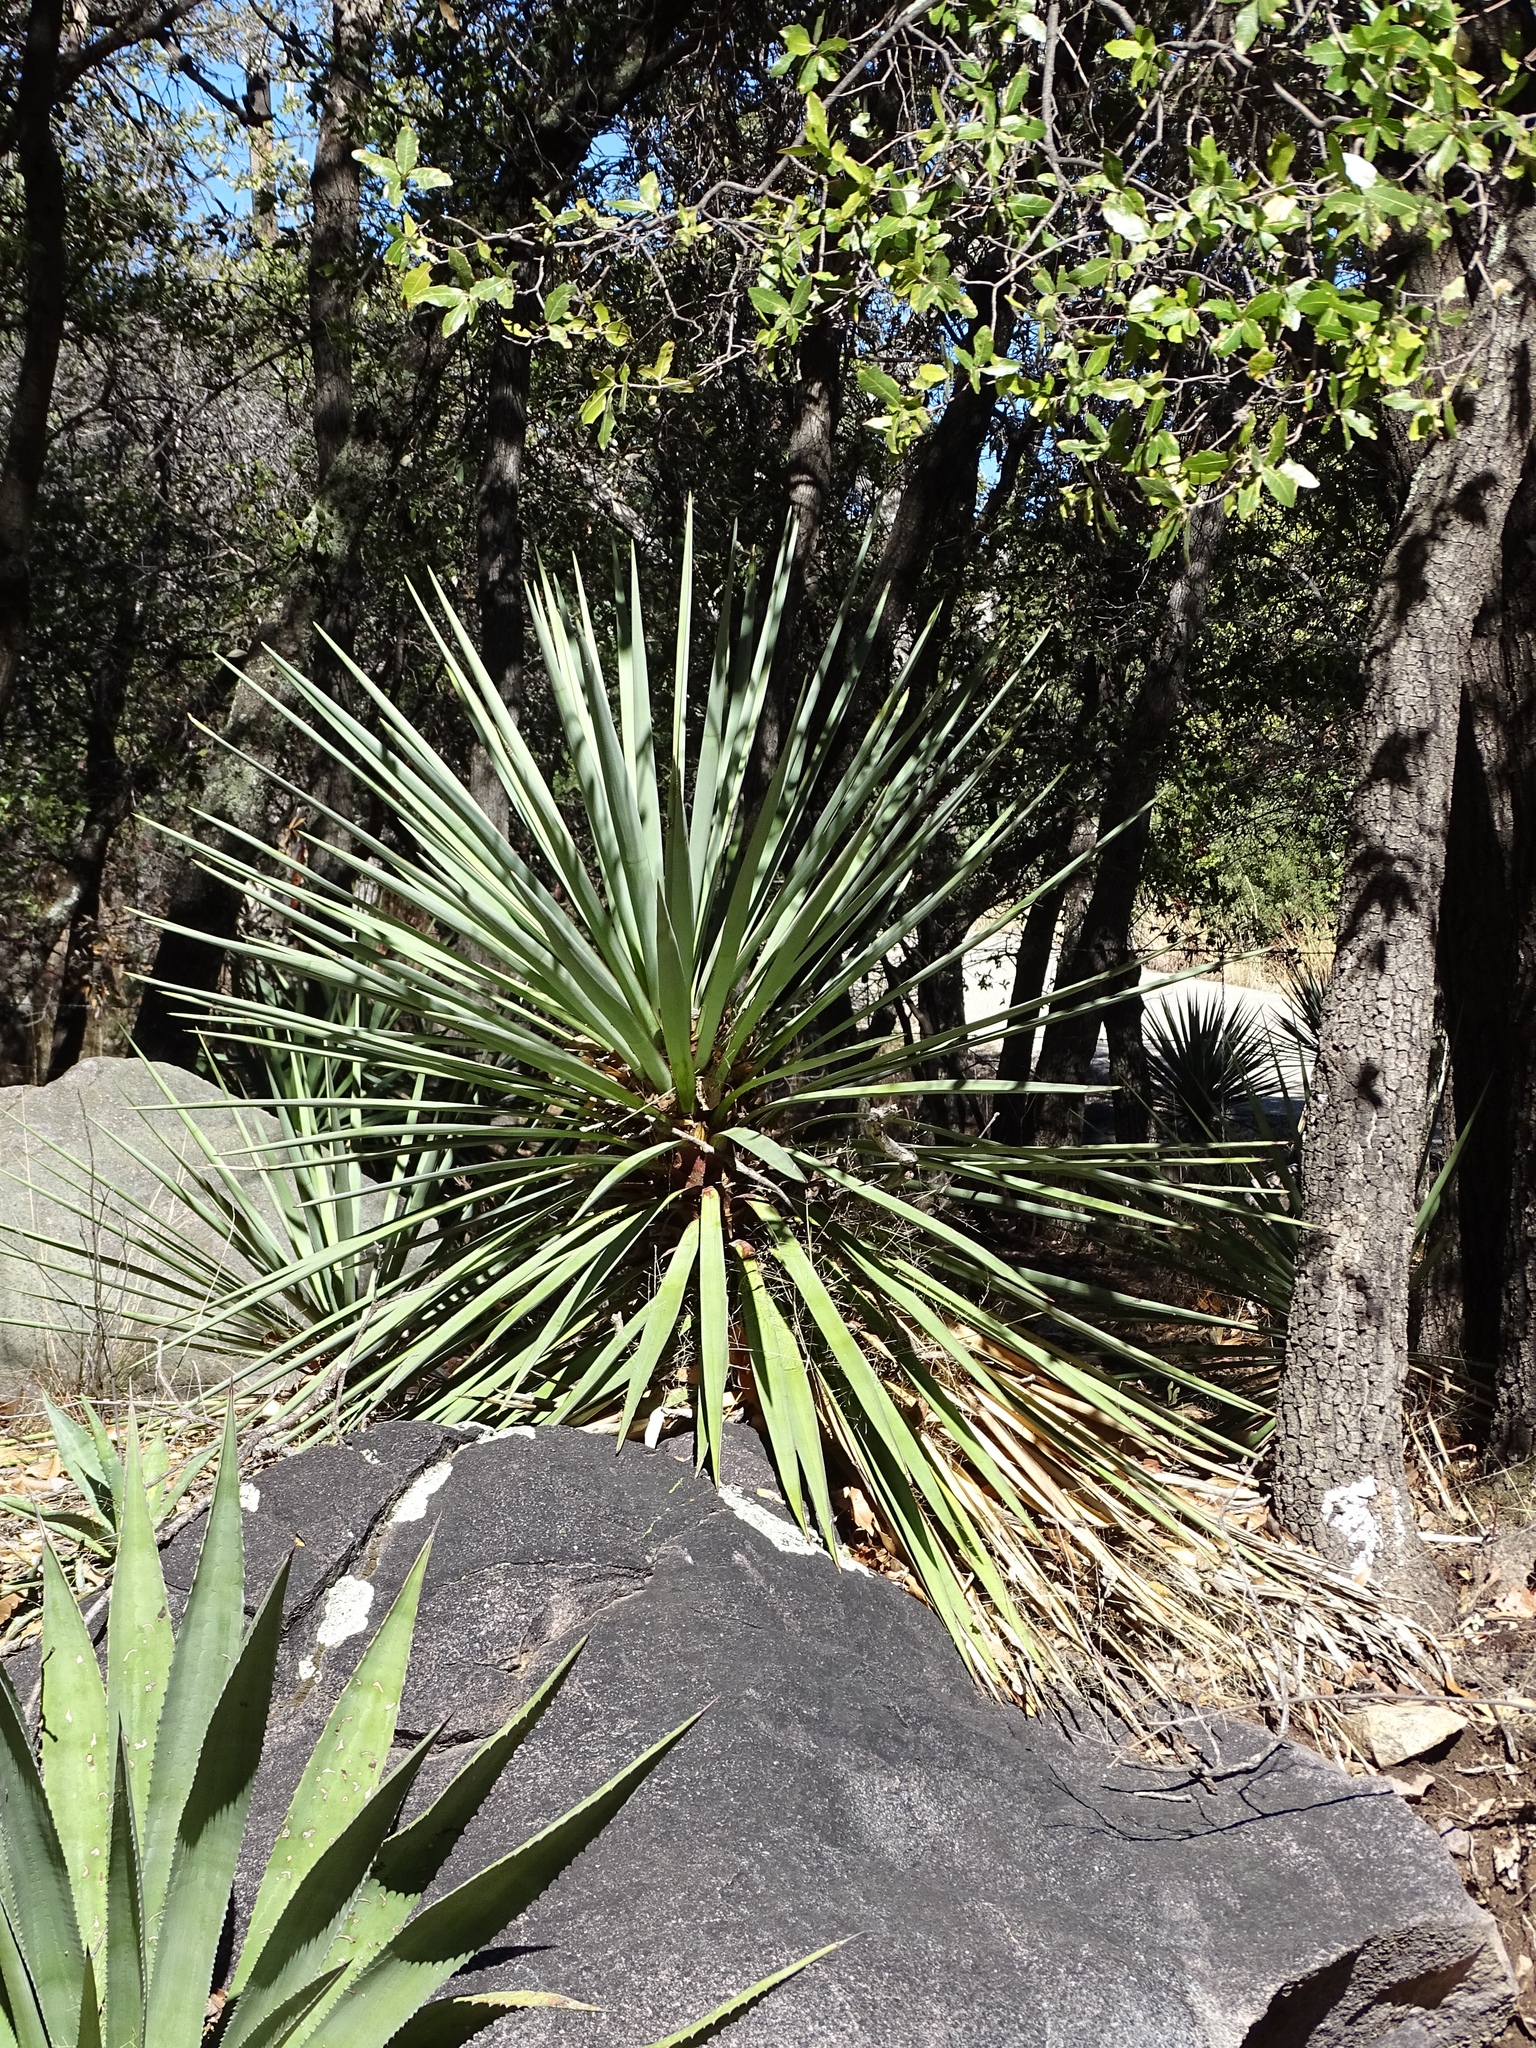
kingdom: Plantae
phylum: Tracheophyta
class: Liliopsida
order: Asparagales
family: Asparagaceae
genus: Yucca
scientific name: Yucca madrensis
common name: Hoary yucca
